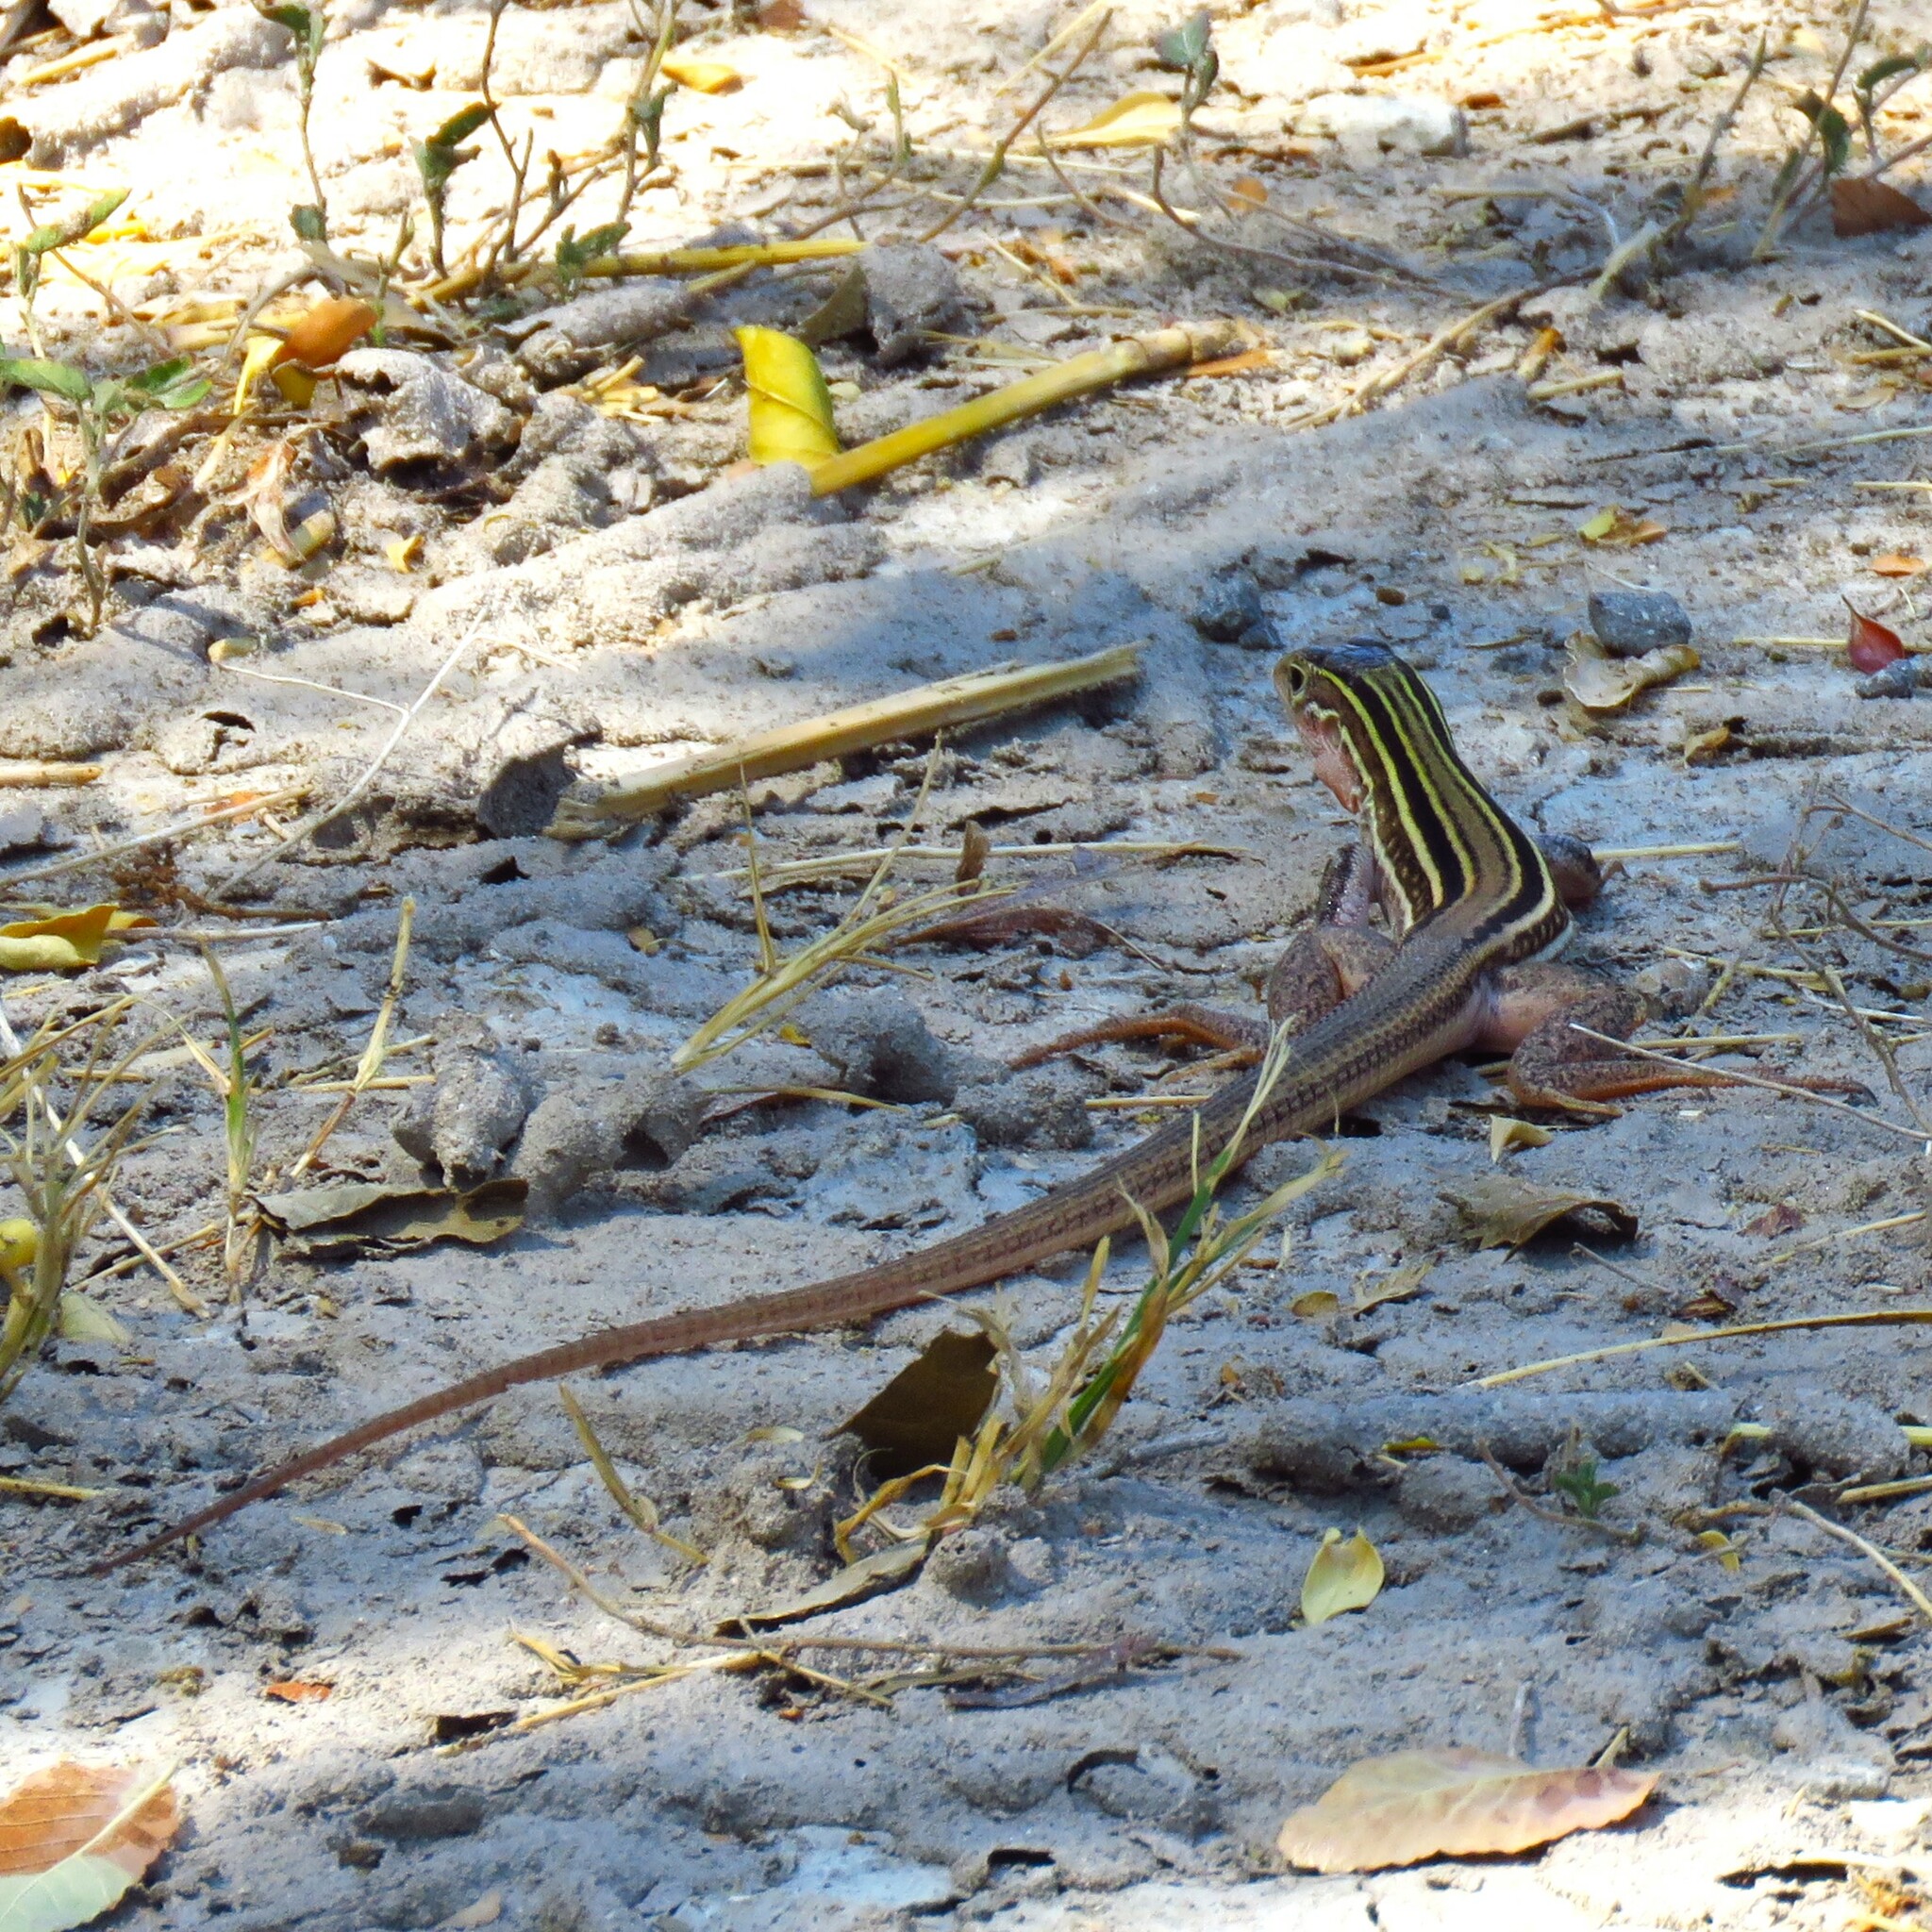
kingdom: Animalia
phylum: Chordata
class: Squamata
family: Teiidae
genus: Aspidoscelis
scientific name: Aspidoscelis gularis
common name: Eastern spotted whiptail
